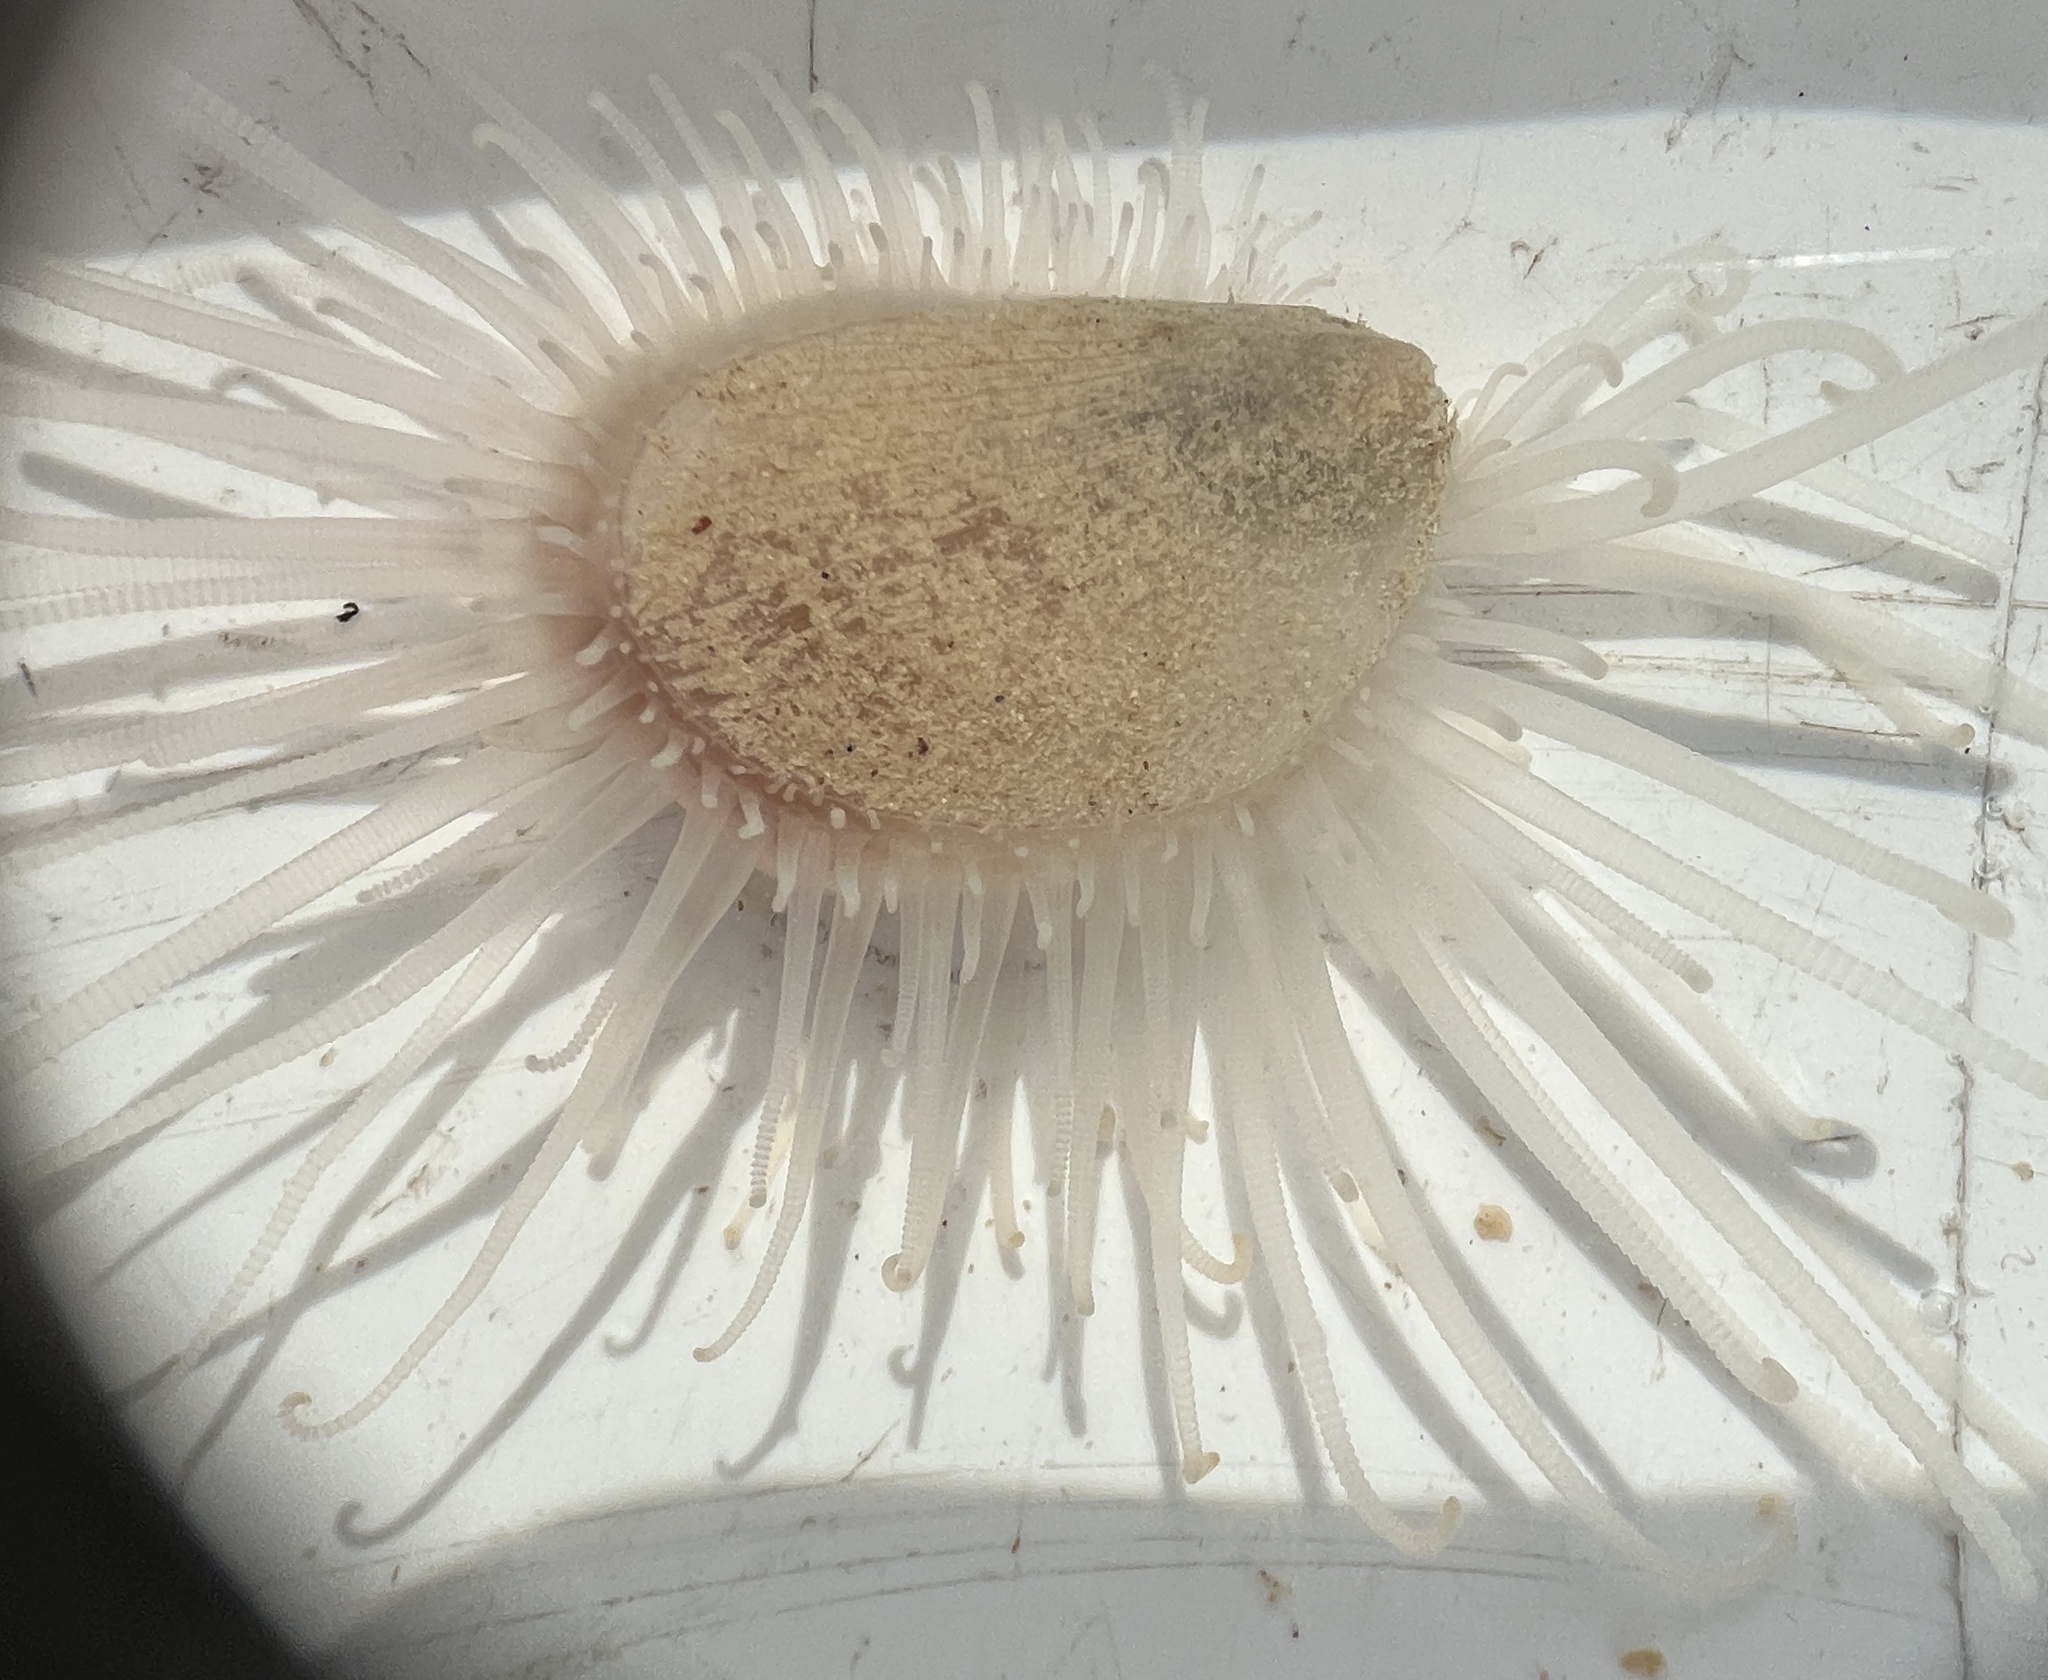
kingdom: Animalia
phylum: Mollusca
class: Bivalvia
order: Limida
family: Limidae
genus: Limaria
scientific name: Limaria pellucida
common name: Antillean fileclam
